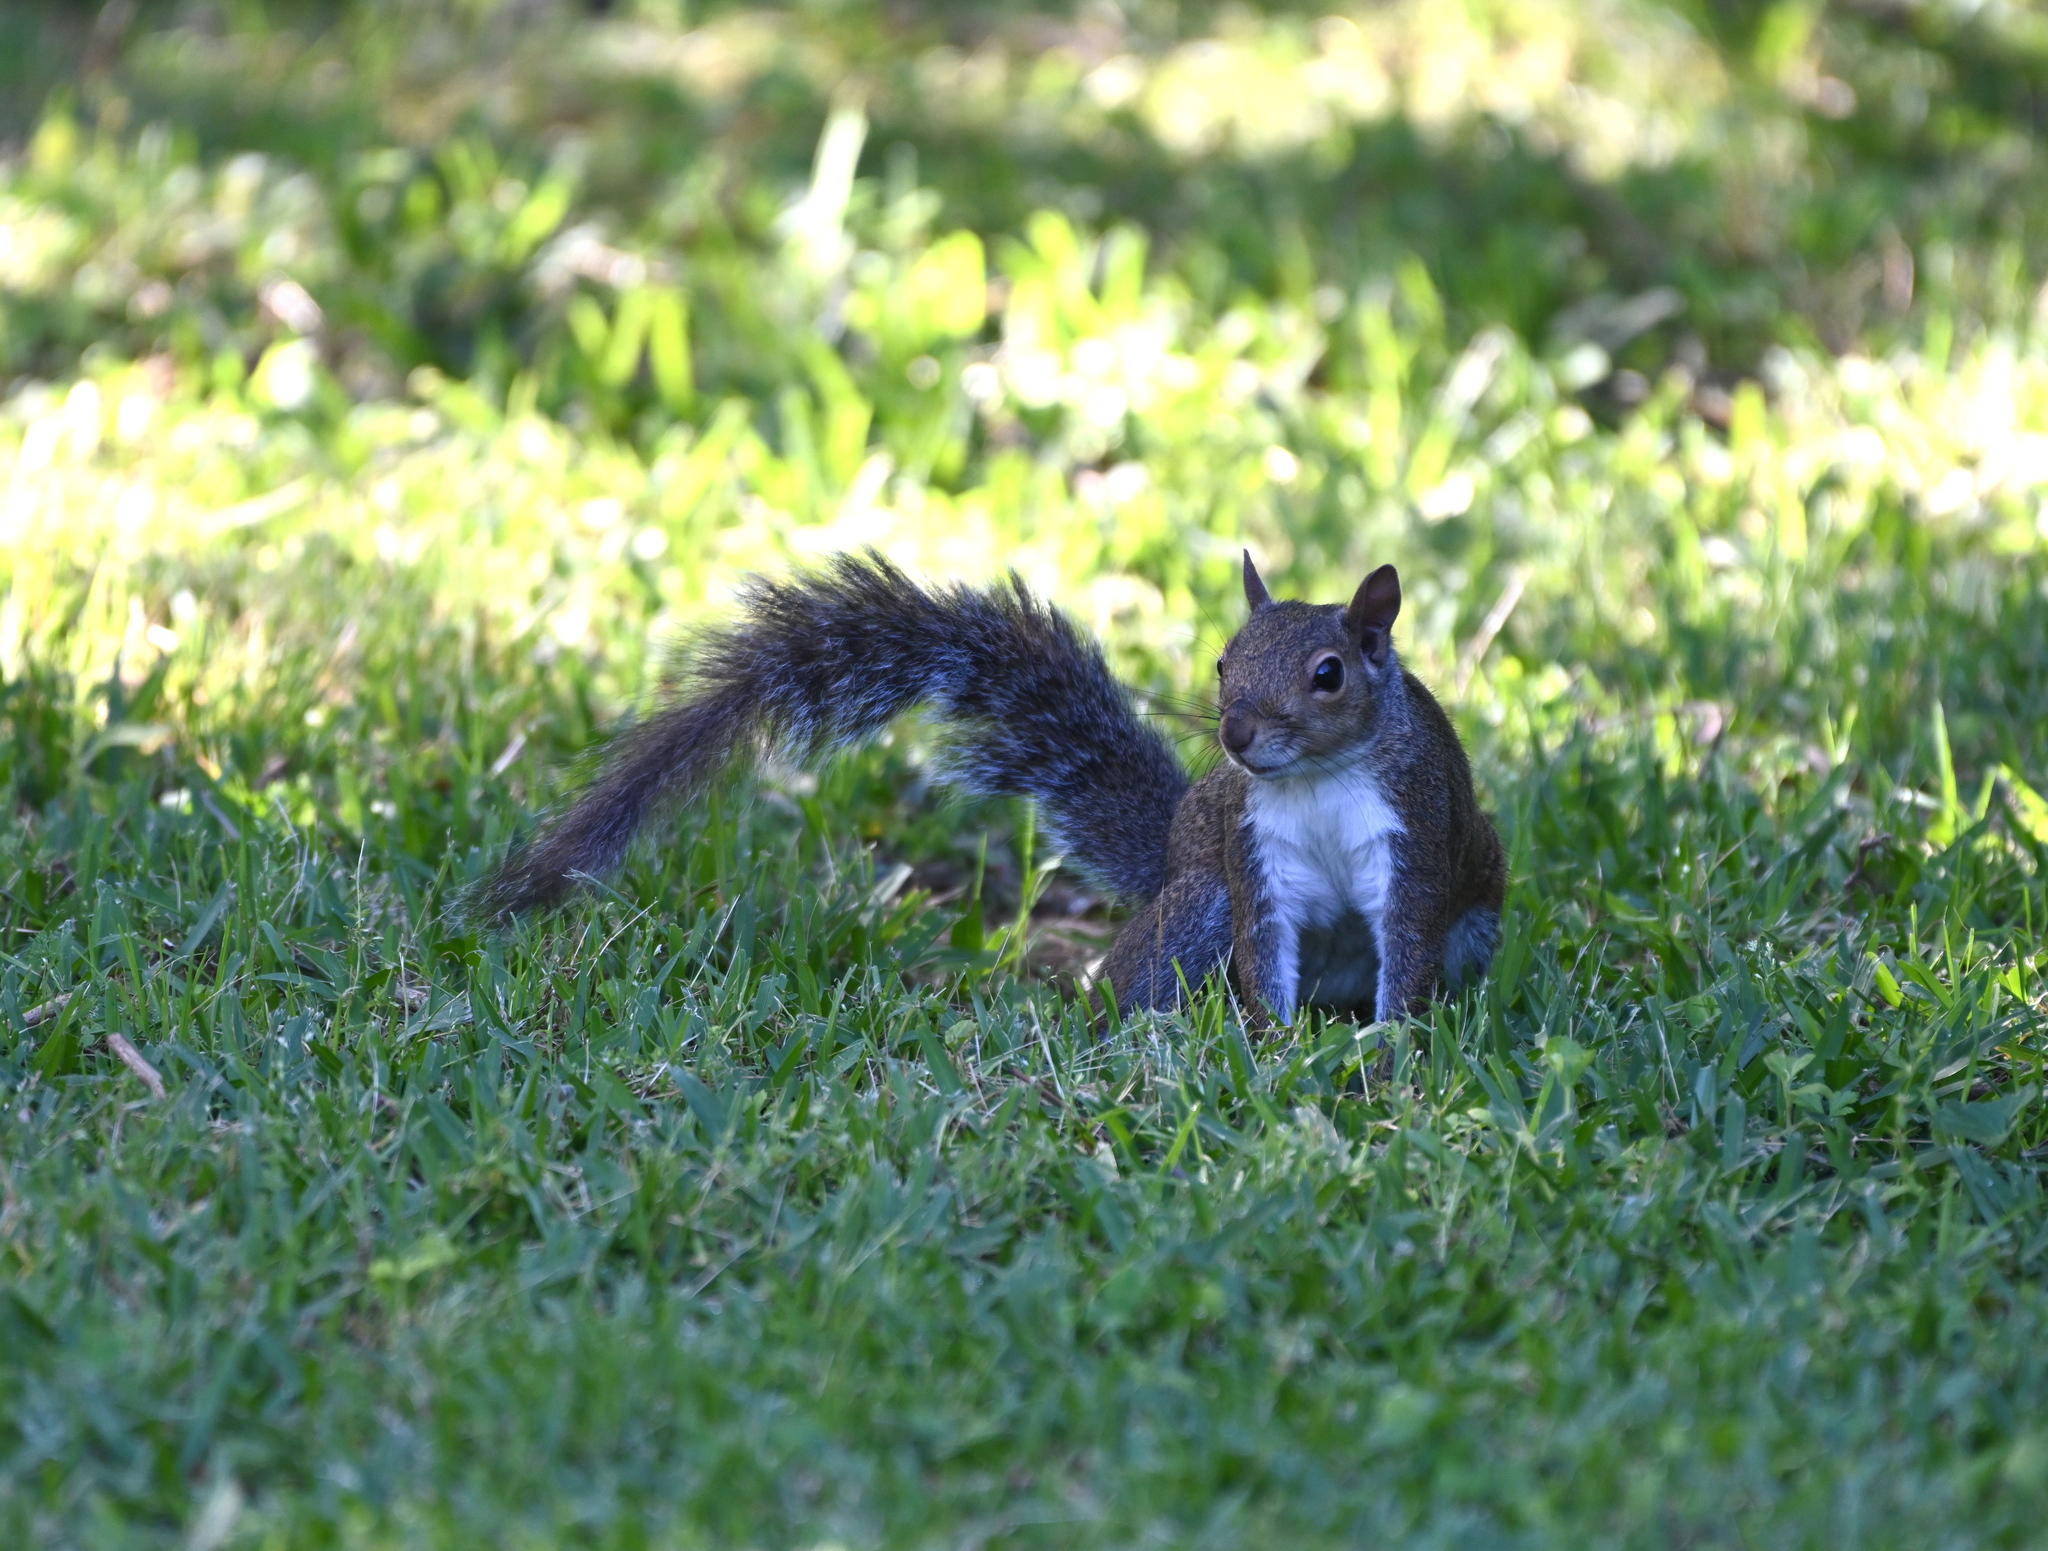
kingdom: Animalia
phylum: Chordata
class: Mammalia
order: Rodentia
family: Sciuridae
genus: Sciurus
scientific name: Sciurus carolinensis
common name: Eastern gray squirrel
